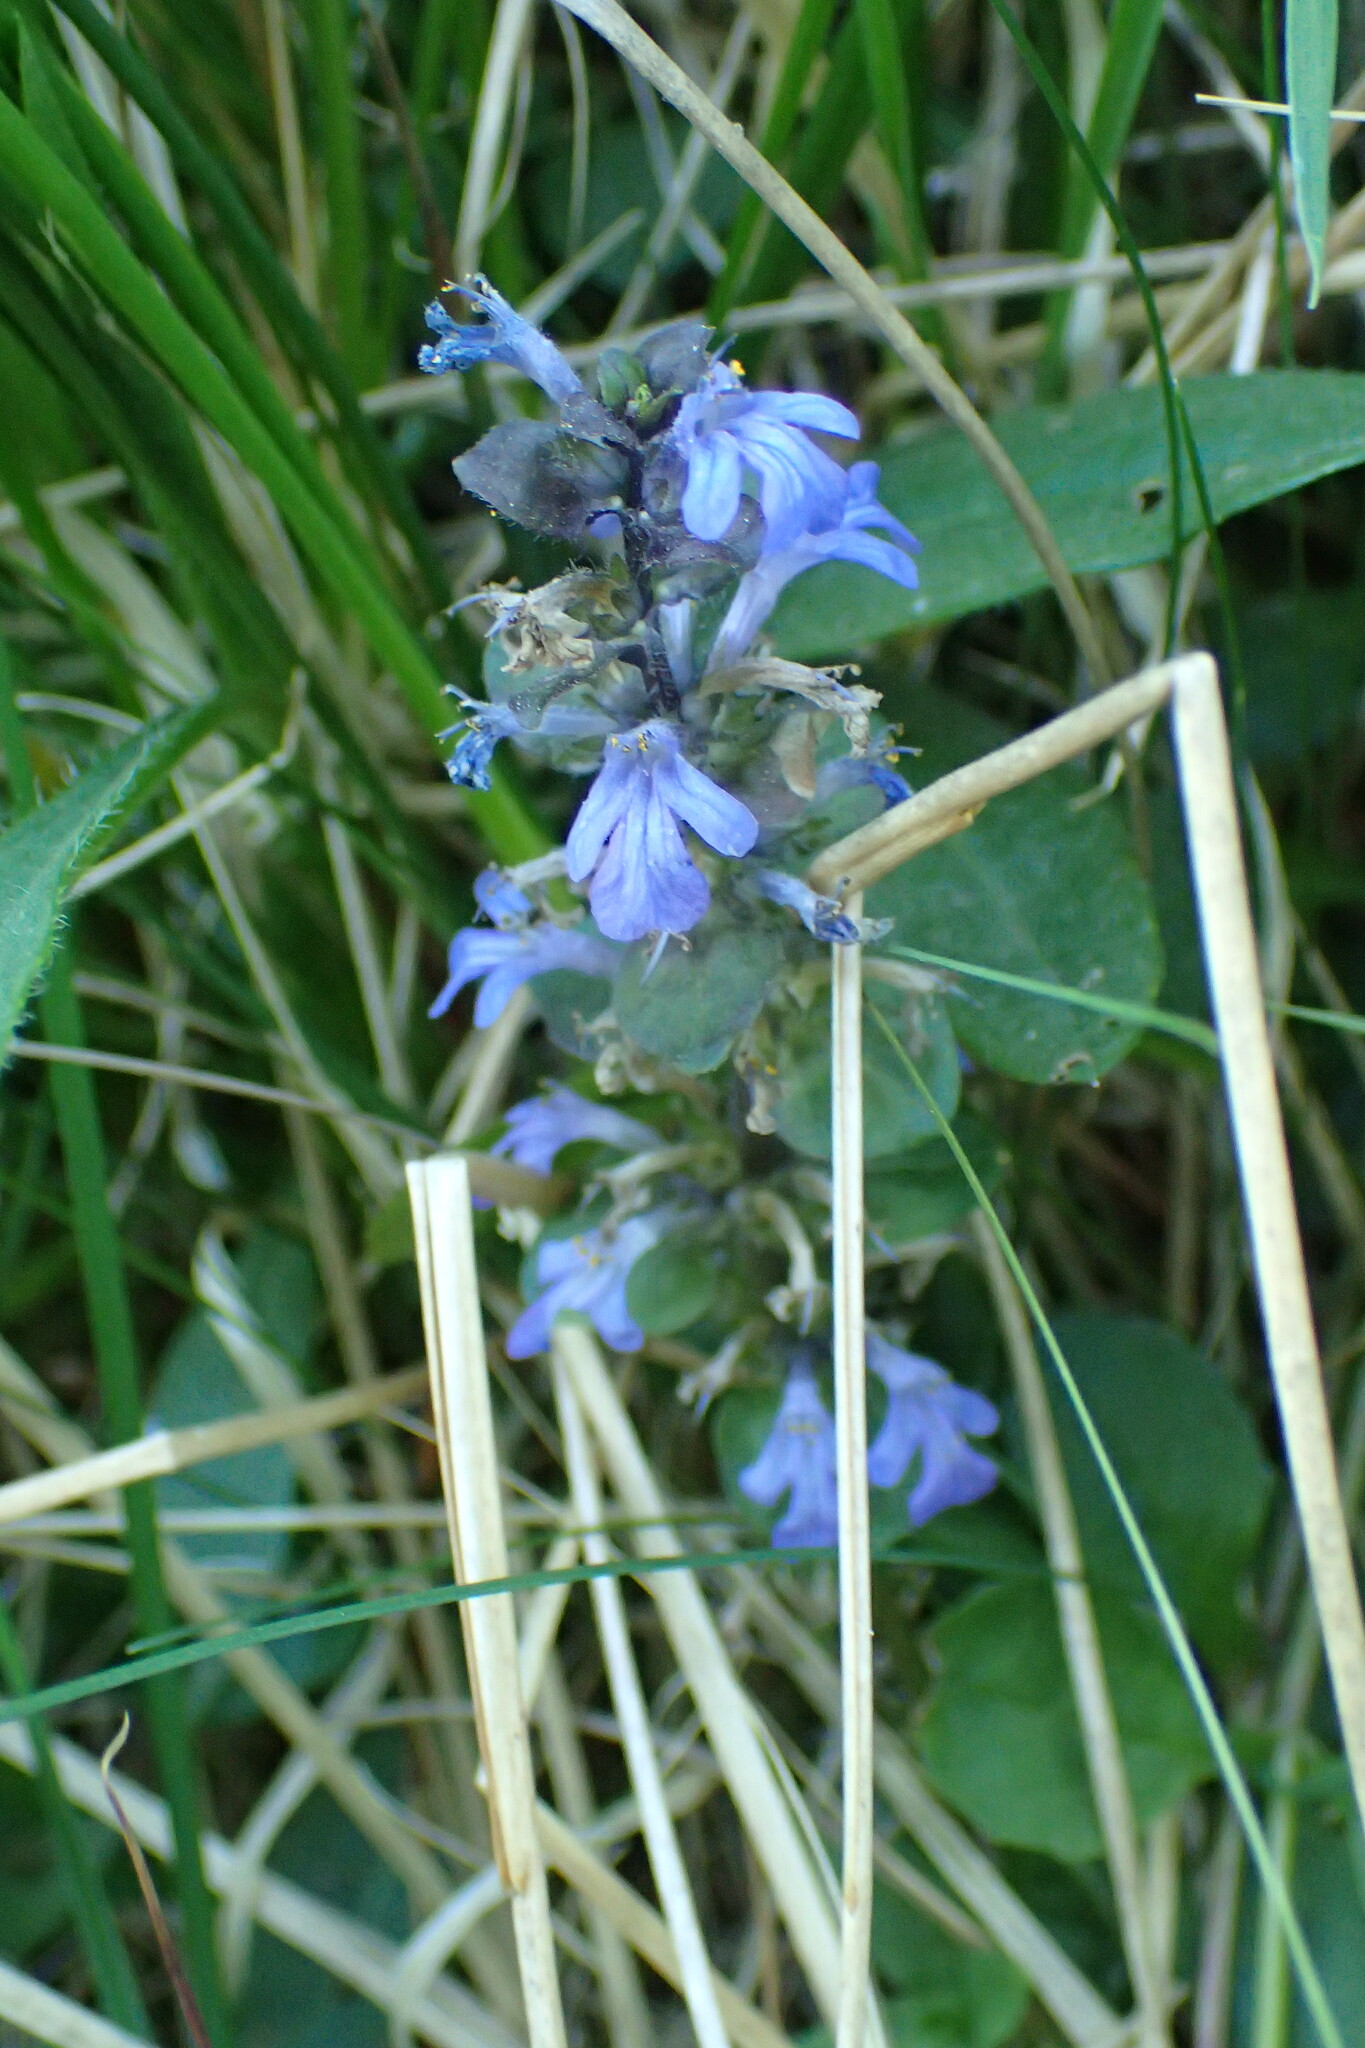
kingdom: Plantae
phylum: Tracheophyta
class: Magnoliopsida
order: Lamiales
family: Lamiaceae
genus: Ajuga
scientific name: Ajuga reptans
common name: Bugle
